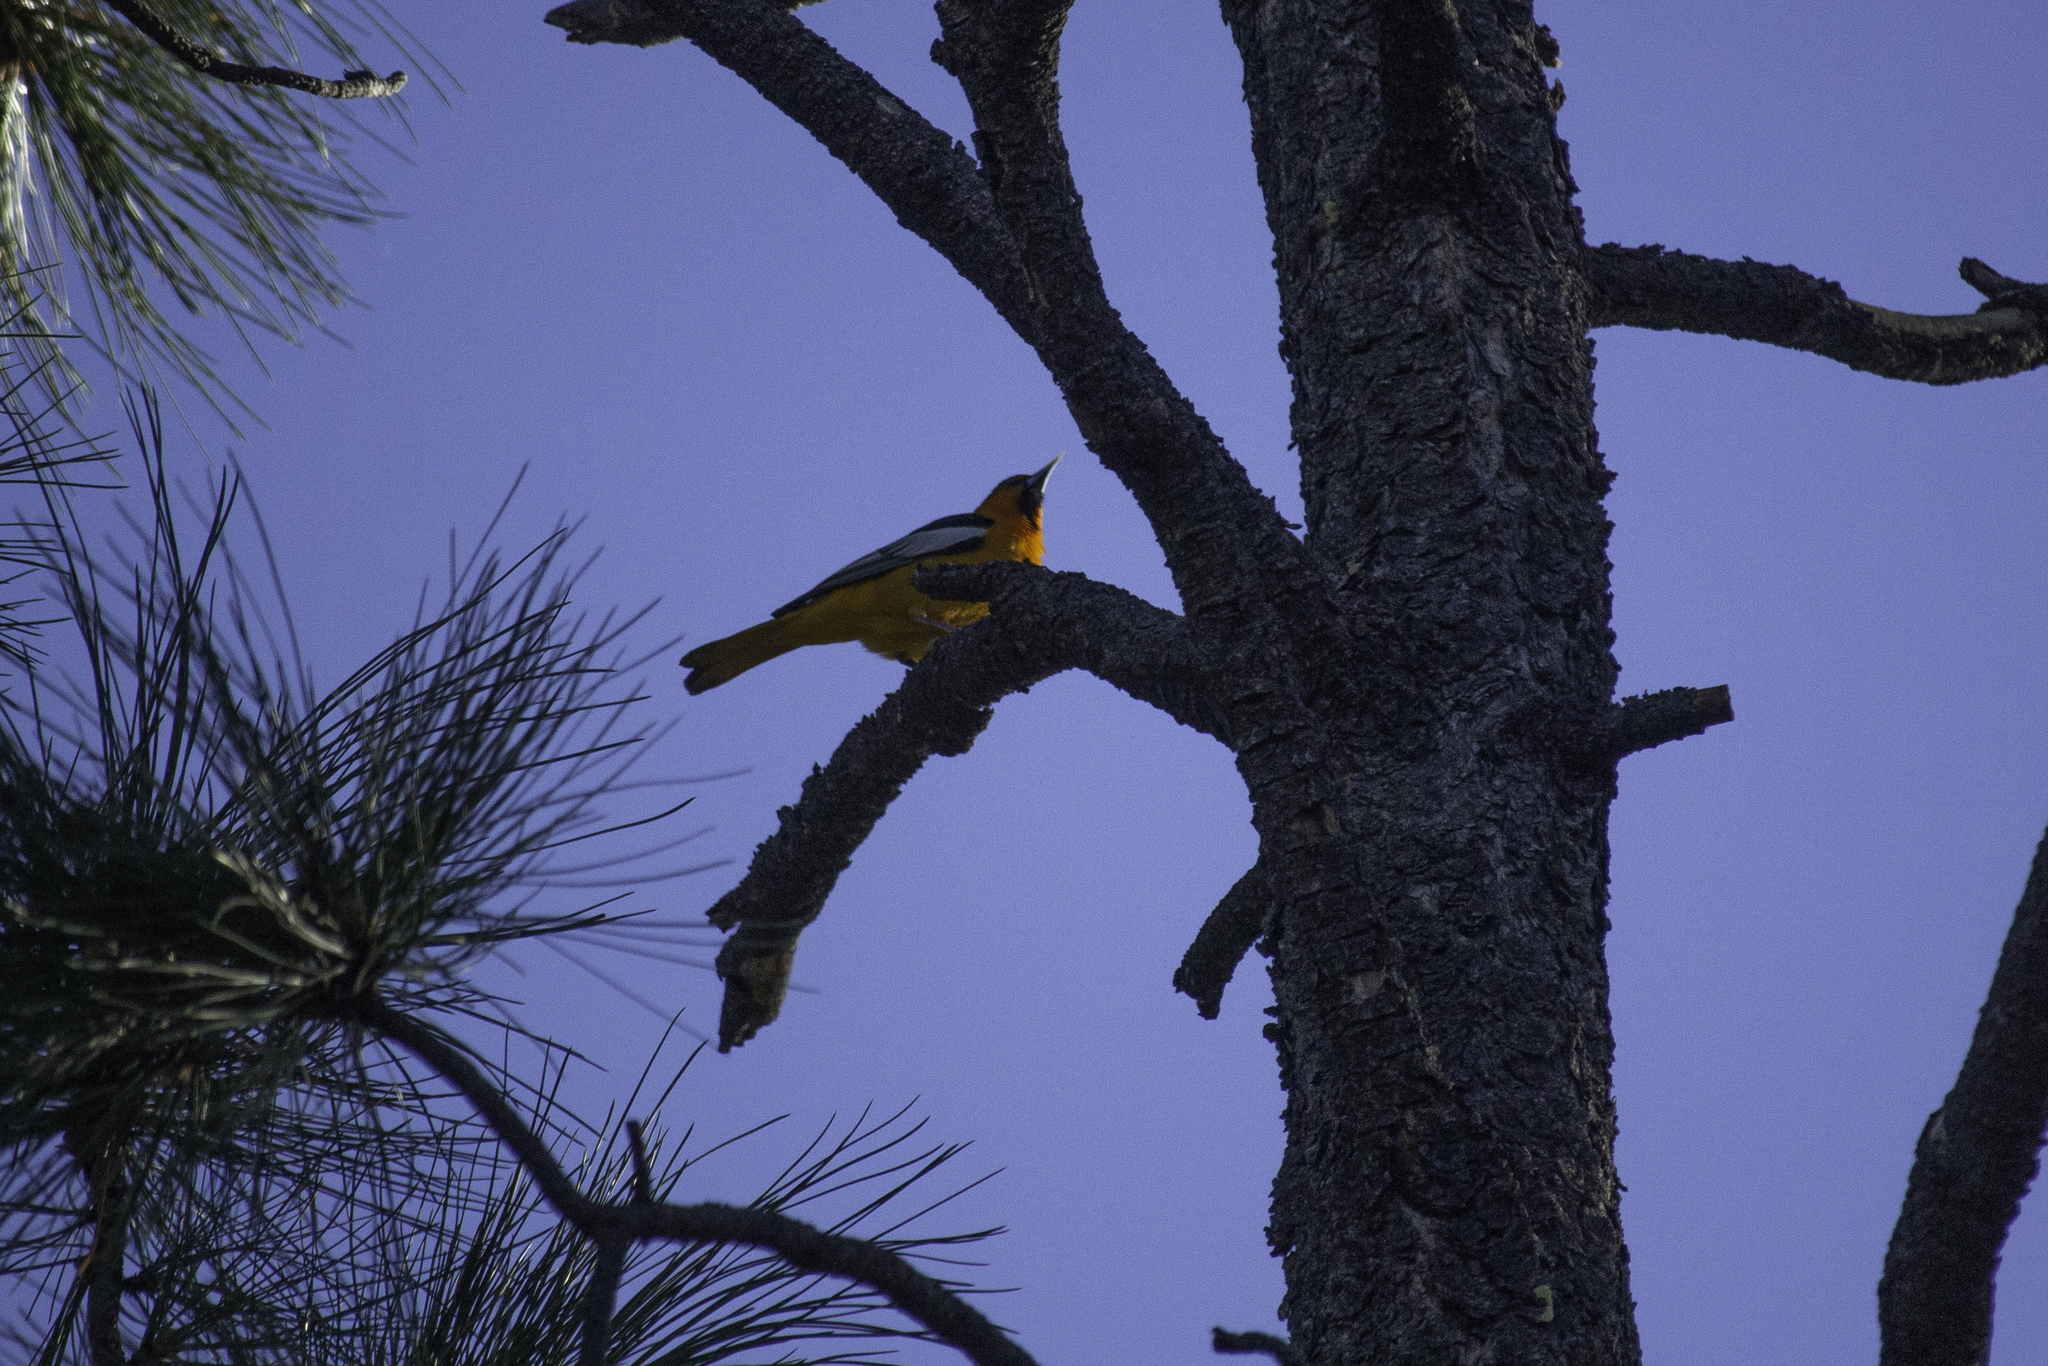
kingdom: Animalia
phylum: Chordata
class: Aves
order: Passeriformes
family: Icteridae
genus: Icterus
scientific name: Icterus bullockii
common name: Bullock's oriole
